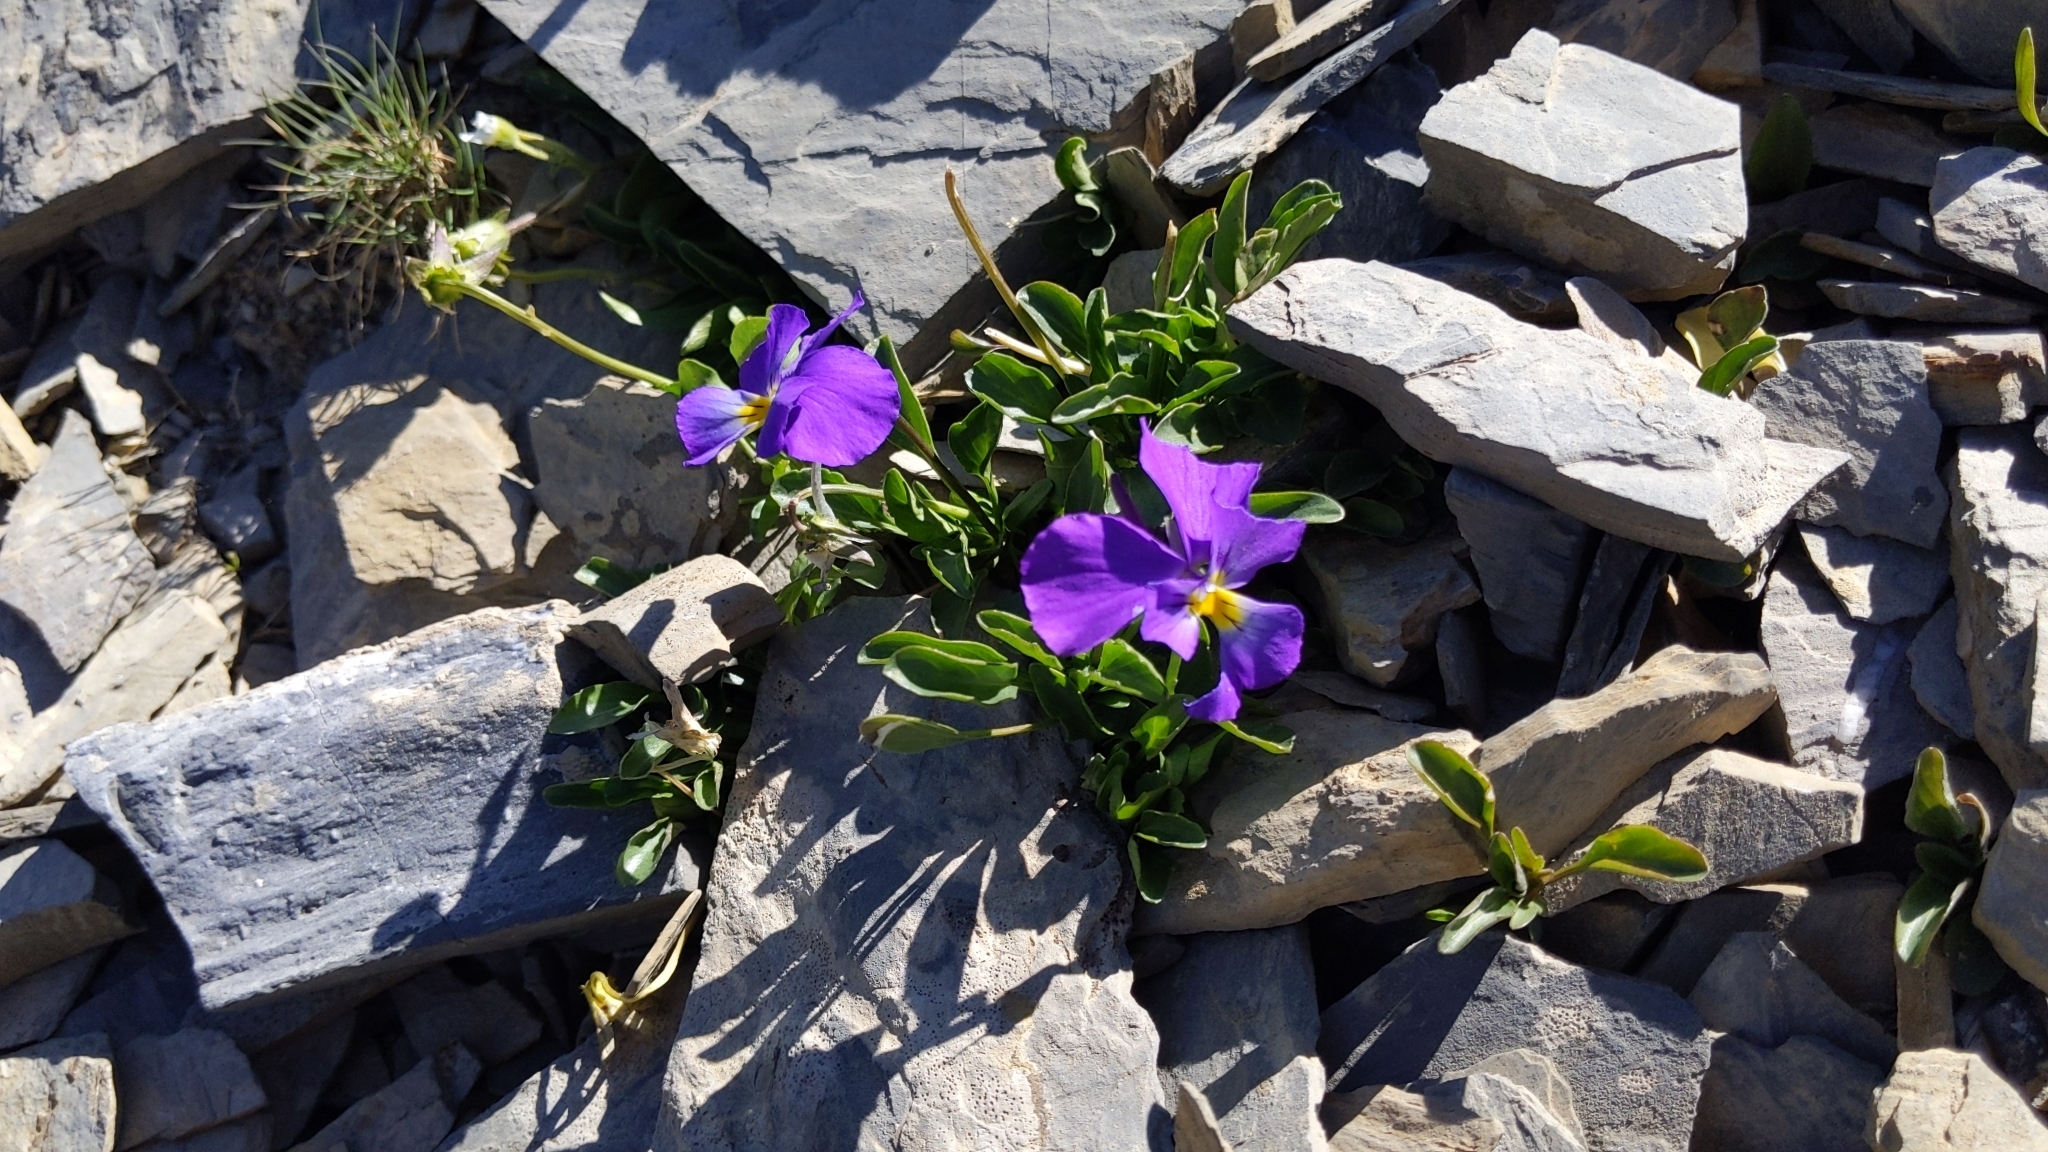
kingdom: Plantae
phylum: Tracheophyta
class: Magnoliopsida
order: Malpighiales
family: Violaceae
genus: Viola
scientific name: Viola calcarata
